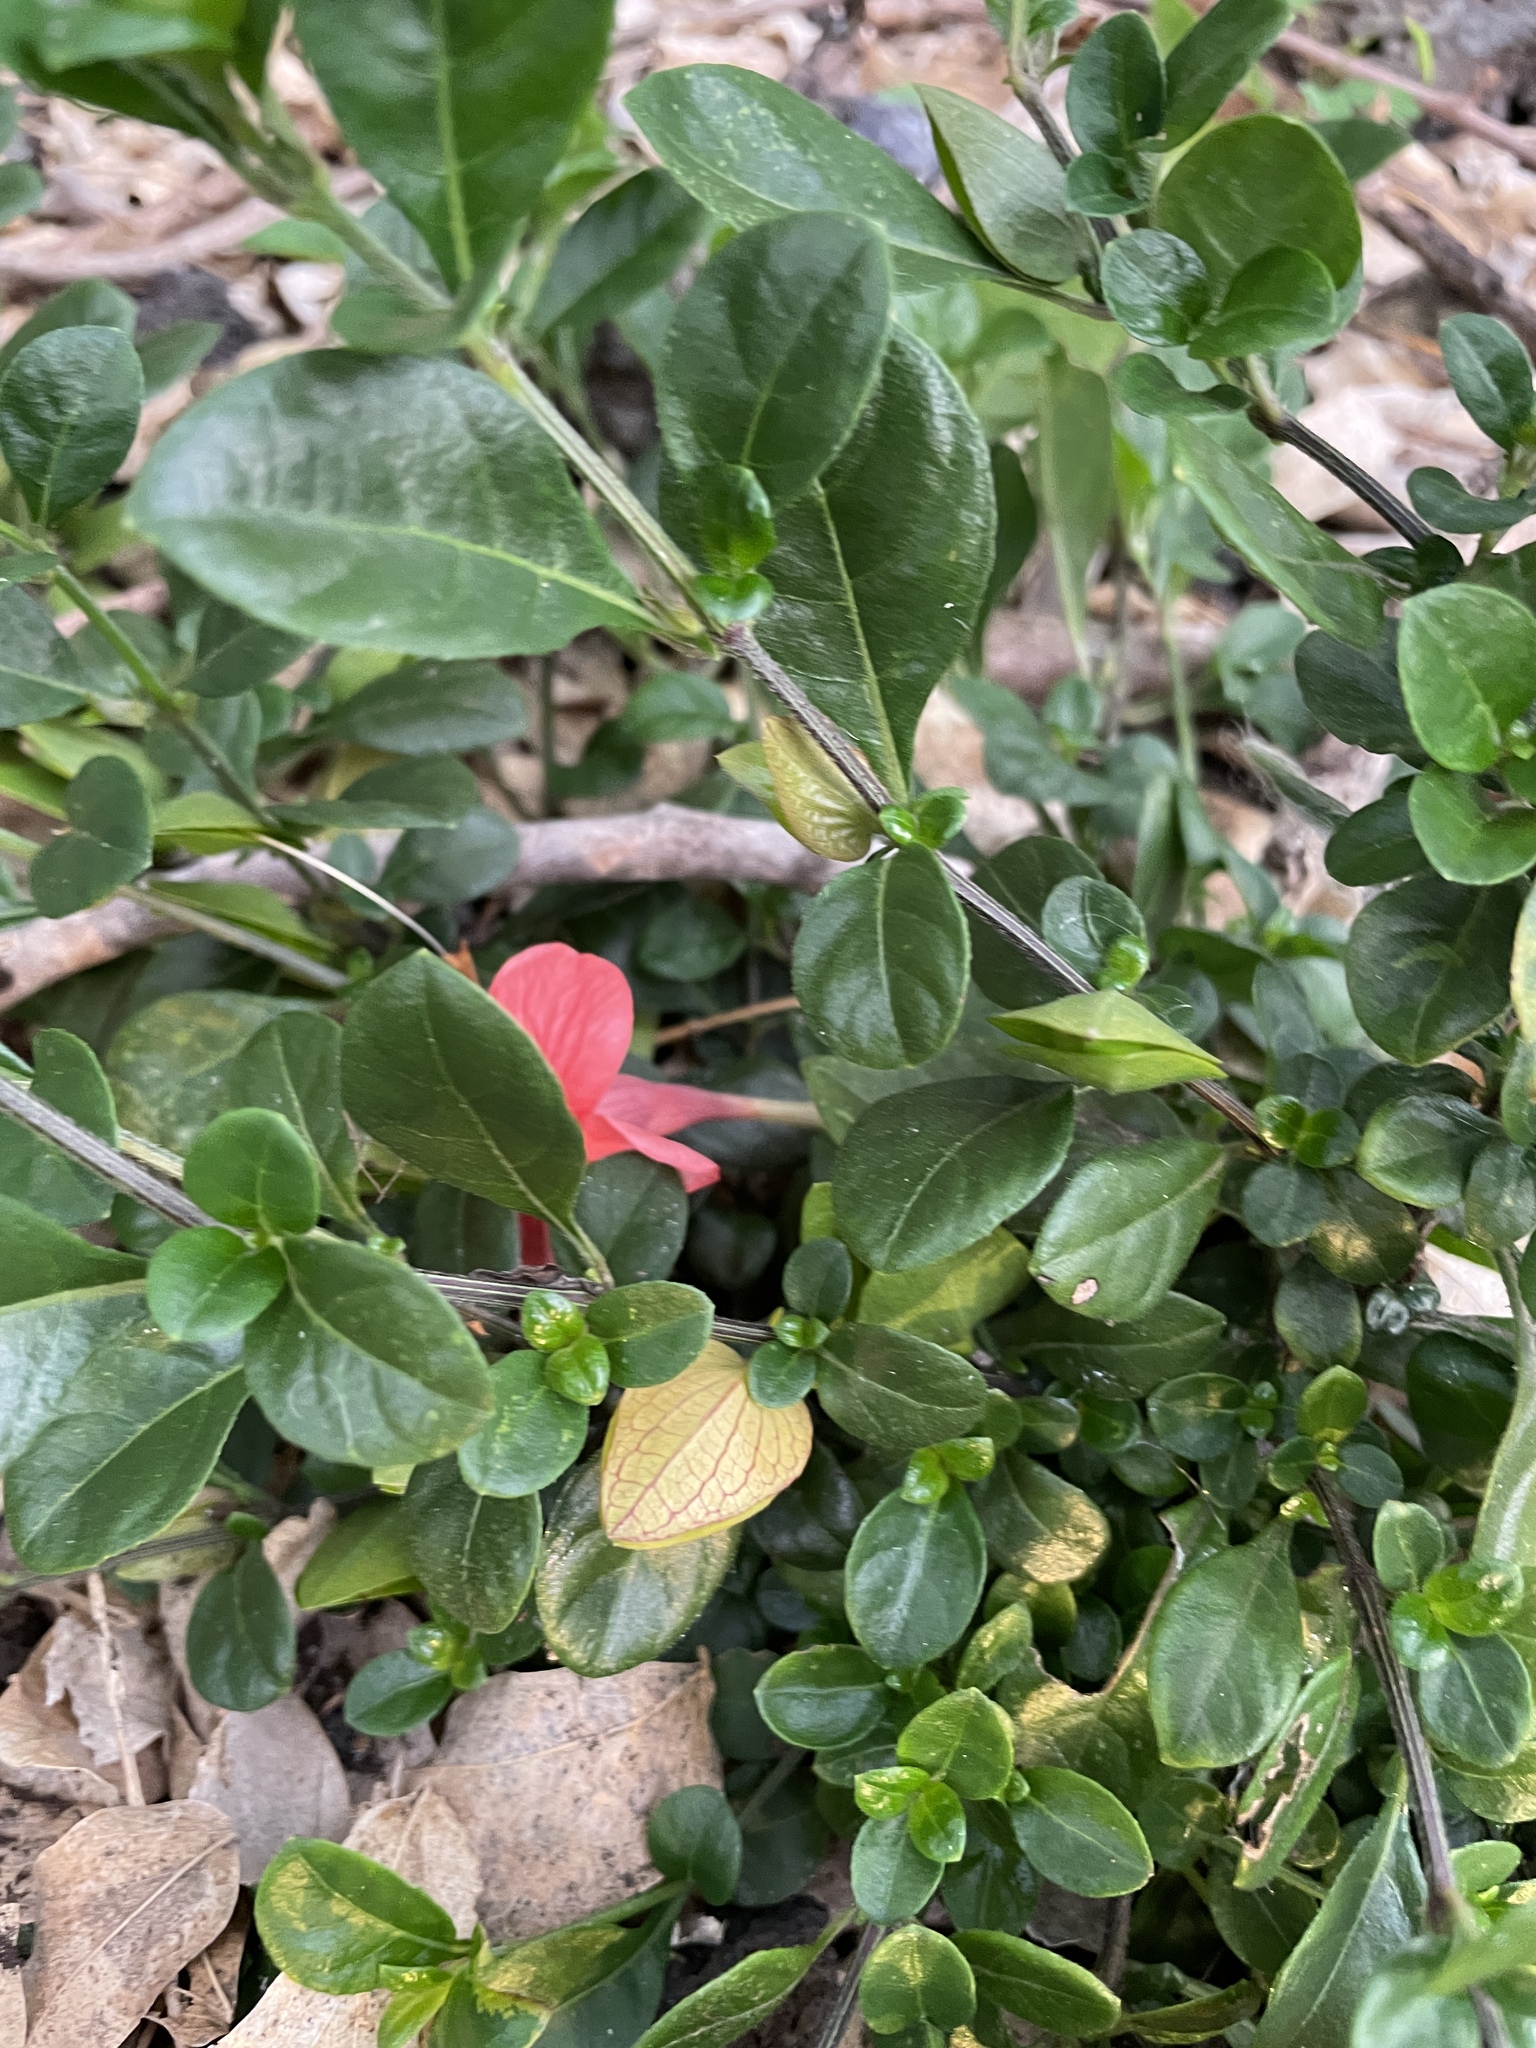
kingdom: Plantae
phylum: Tracheophyta
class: Magnoliopsida
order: Lamiales
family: Acanthaceae
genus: Barleria
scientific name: Barleria repens
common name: Pink-ruellia
